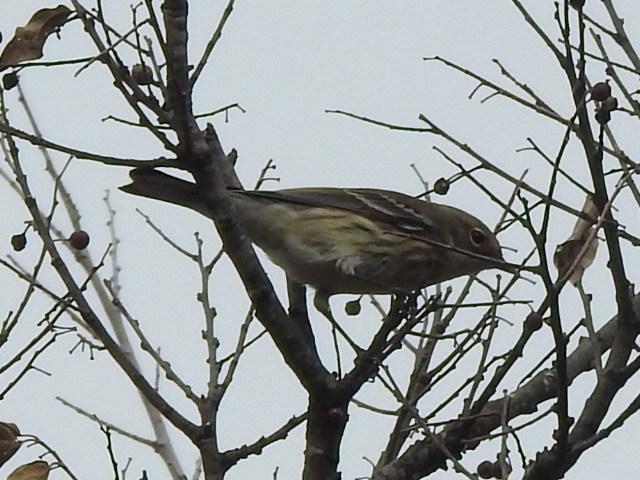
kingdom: Animalia
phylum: Chordata
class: Aves
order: Passeriformes
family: Parulidae
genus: Setophaga
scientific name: Setophaga coronata
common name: Myrtle warbler
